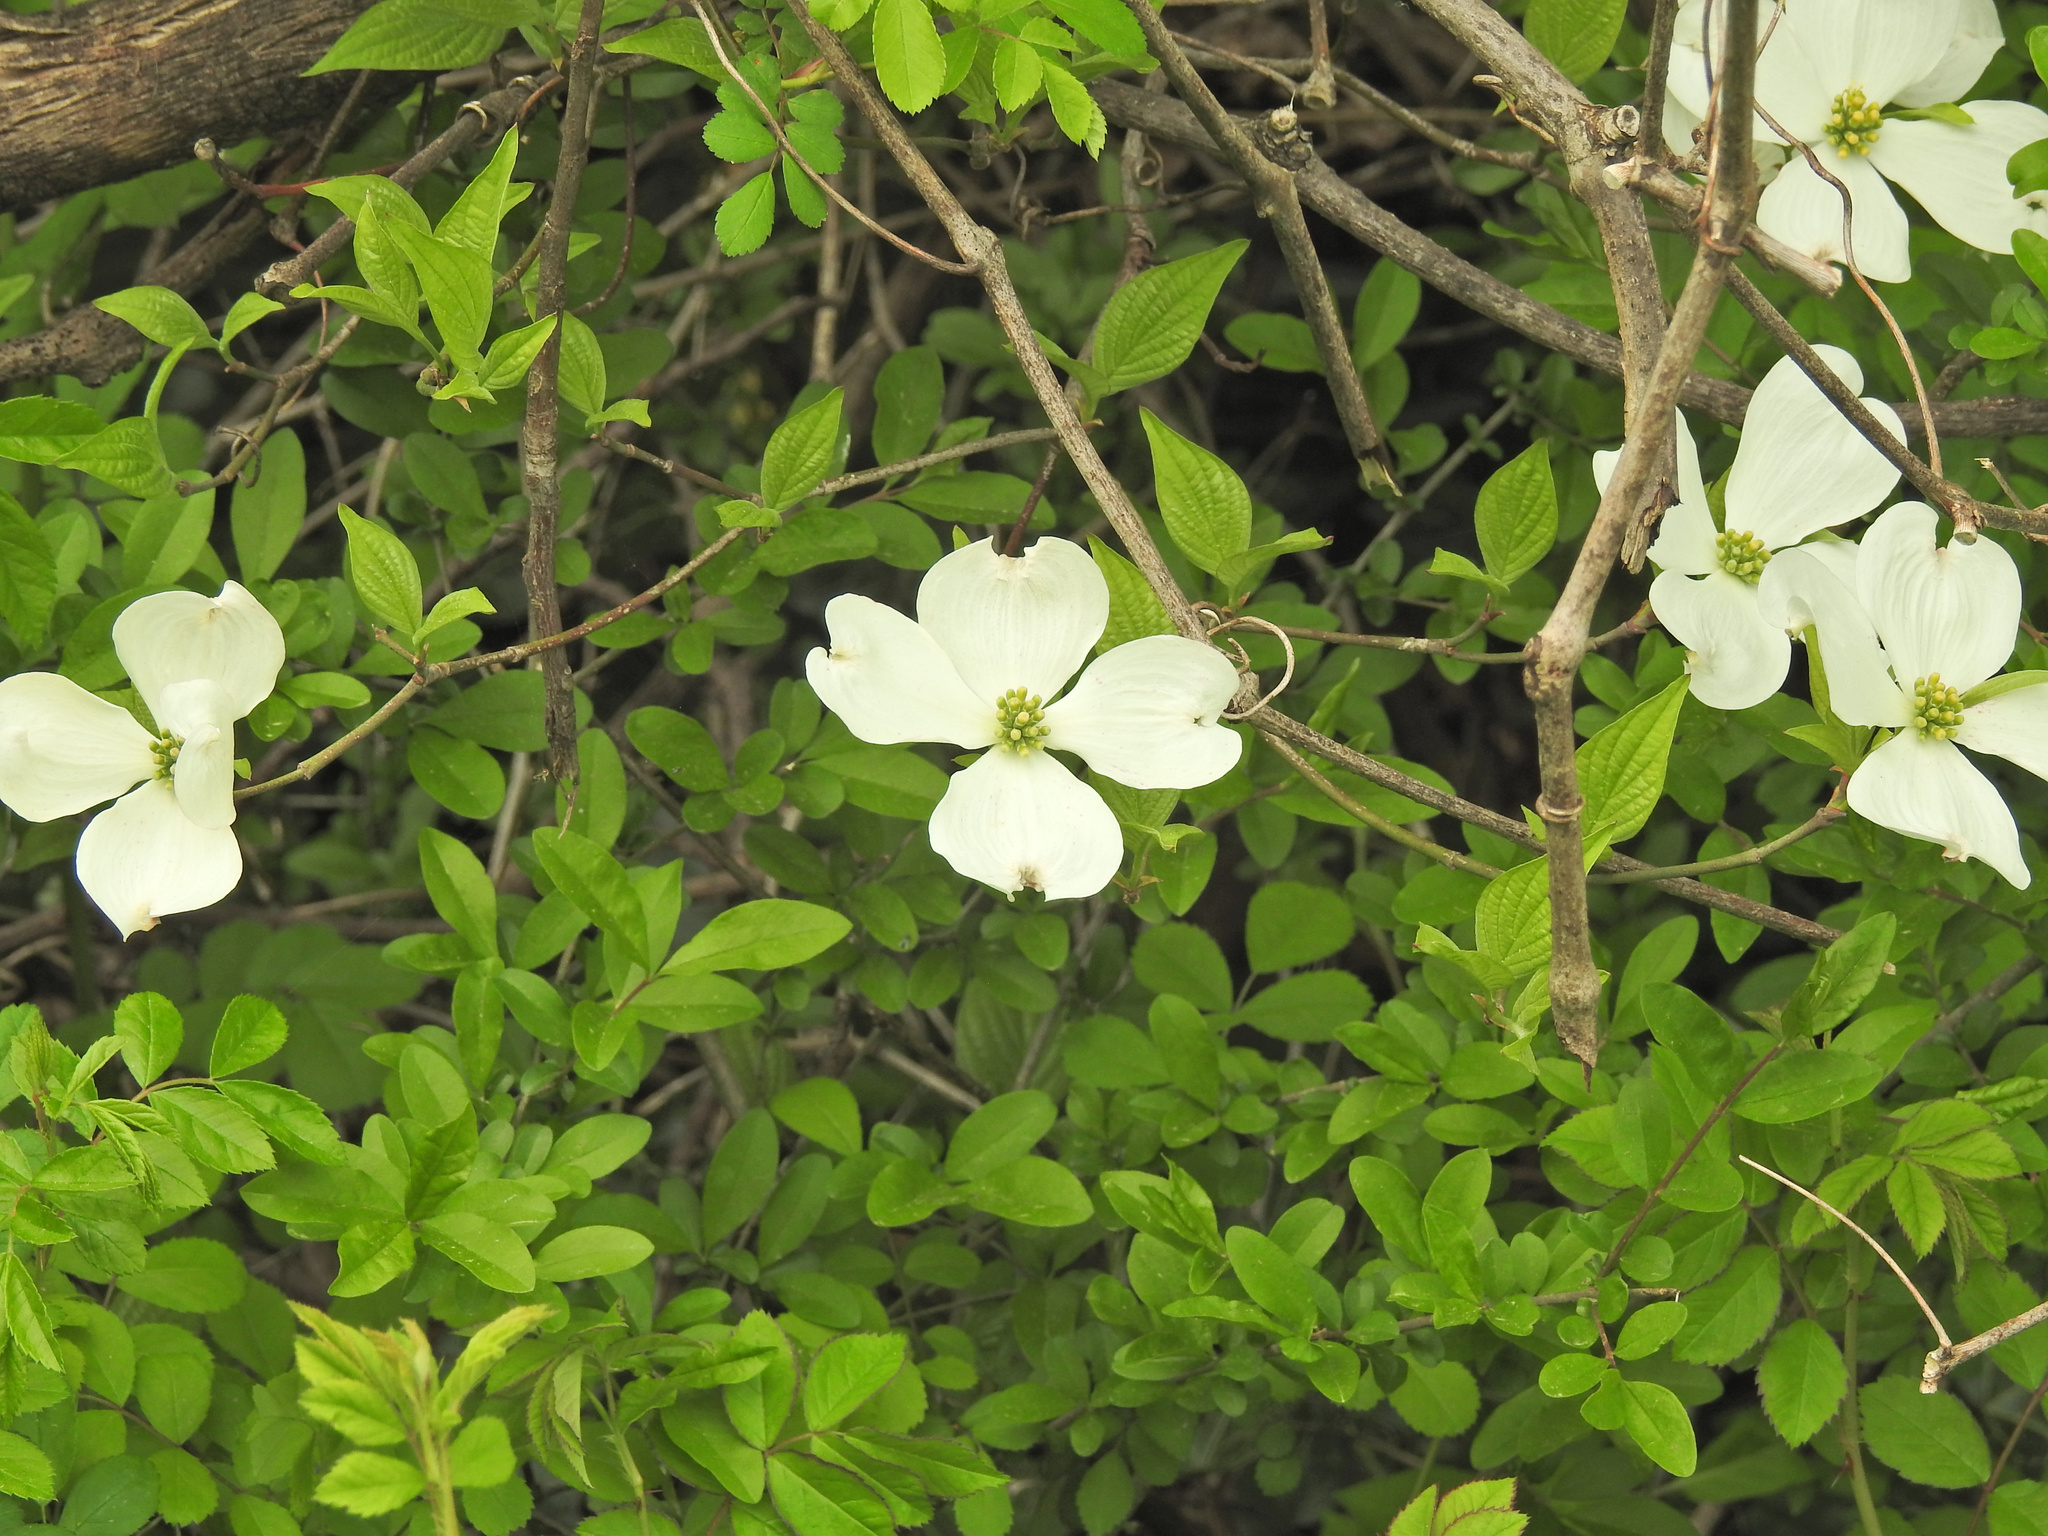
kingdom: Plantae
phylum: Tracheophyta
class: Magnoliopsida
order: Cornales
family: Cornaceae
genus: Cornus
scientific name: Cornus florida
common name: Flowering dogwood
